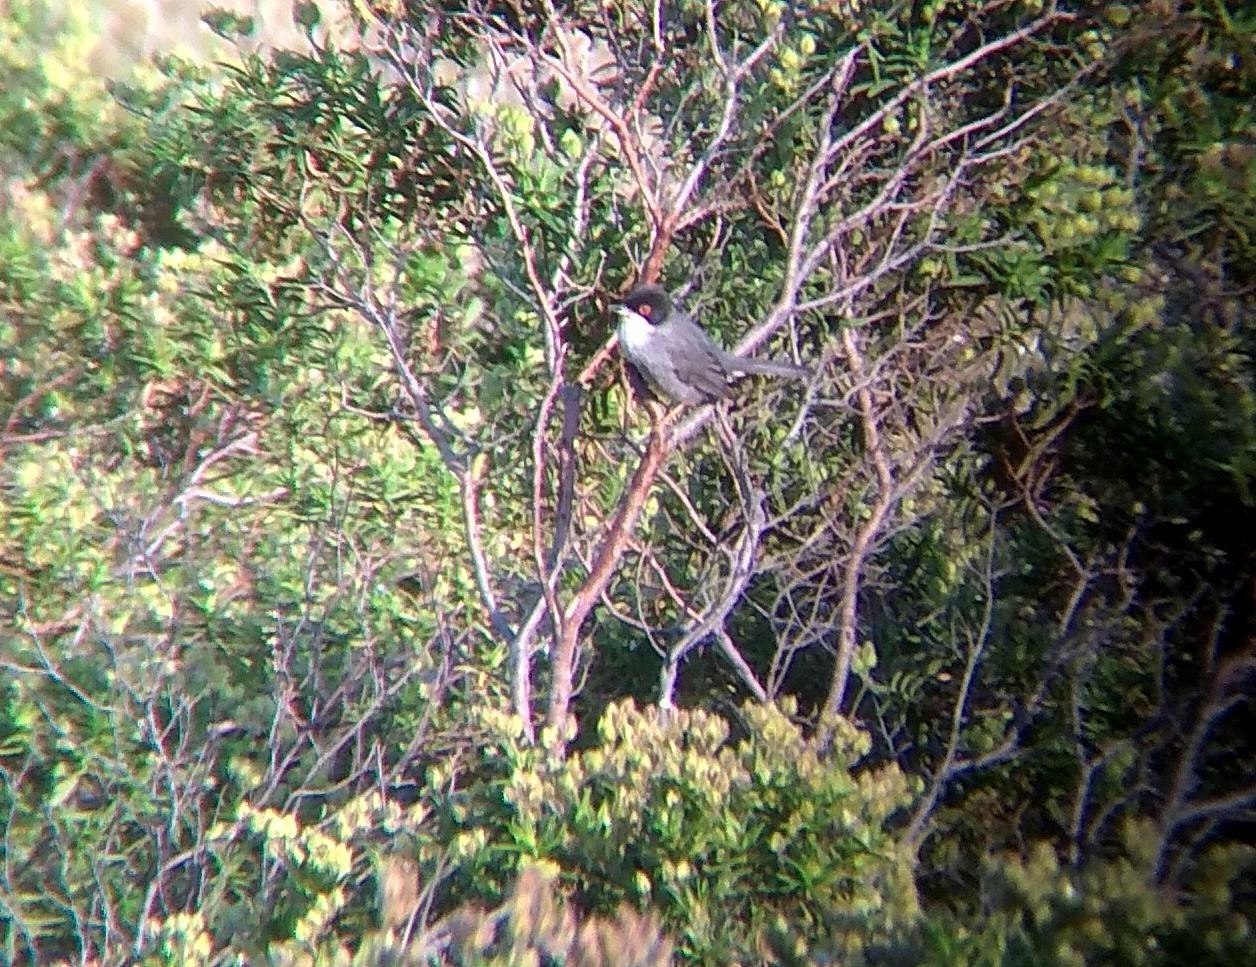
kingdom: Animalia
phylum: Chordata
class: Aves
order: Passeriformes
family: Sylviidae
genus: Curruca
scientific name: Curruca melanocephala
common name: Sardinian warbler
